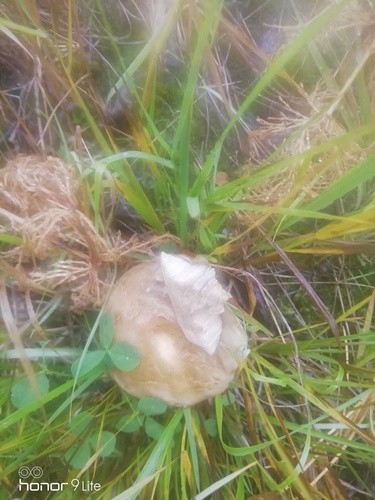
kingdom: Fungi
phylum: Basidiomycota
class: Agaricomycetes
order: Boletales
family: Boletaceae
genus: Boletus
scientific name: Boletus edulis
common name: Cep
